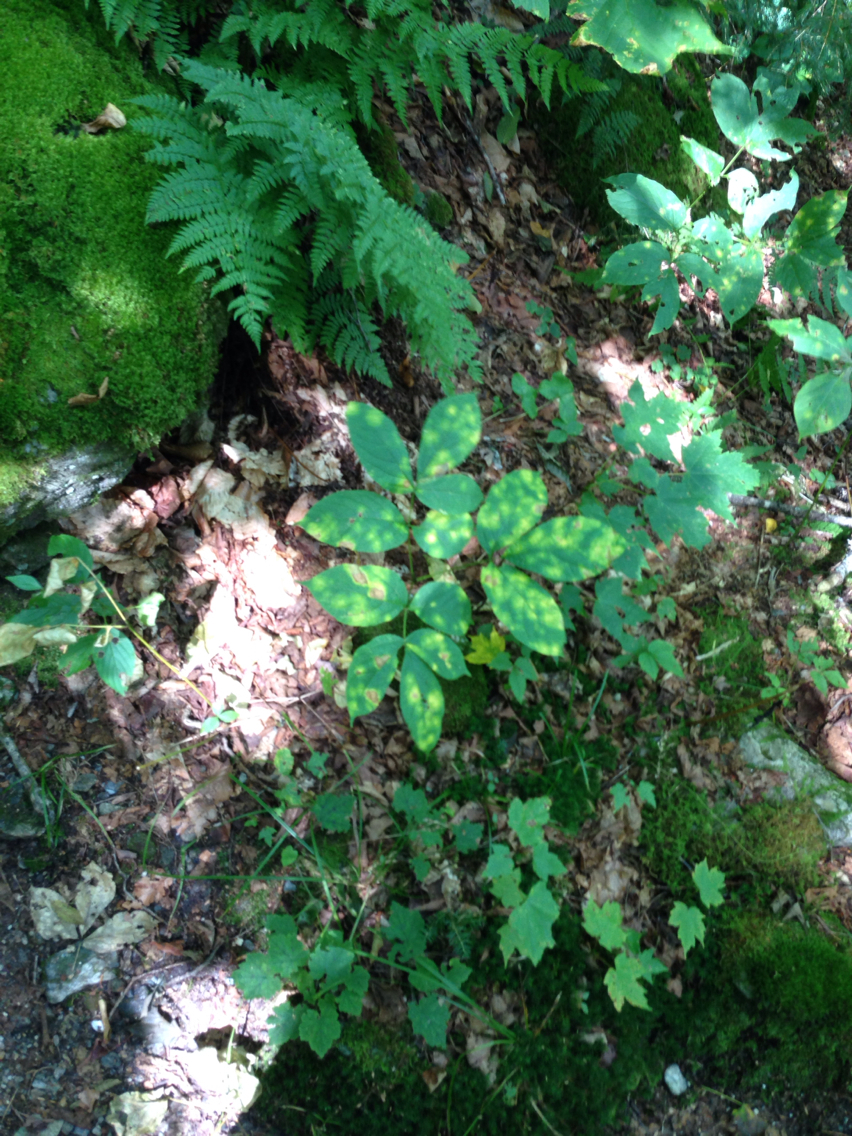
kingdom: Plantae
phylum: Tracheophyta
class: Magnoliopsida
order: Apiales
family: Araliaceae
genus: Aralia
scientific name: Aralia nudicaulis
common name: Wild sarsaparilla
